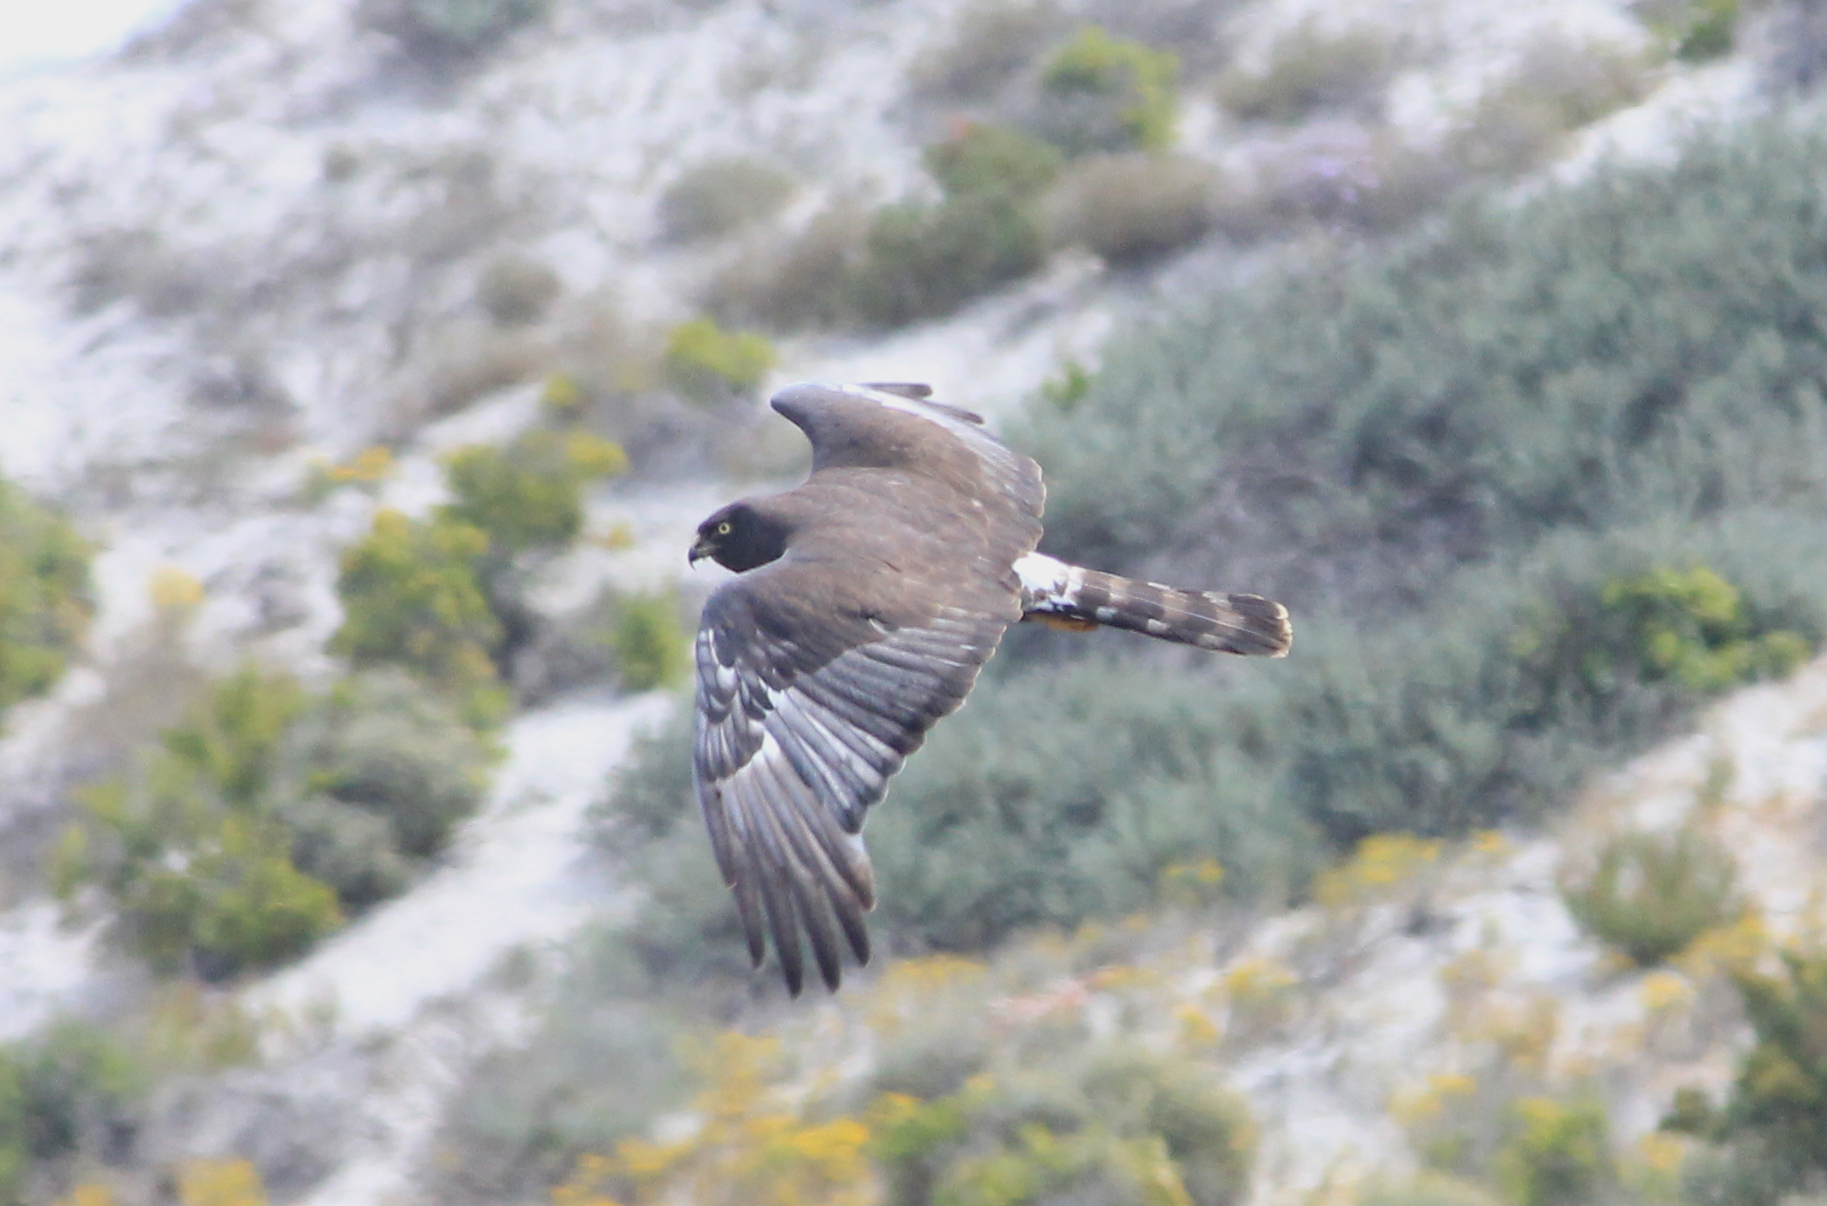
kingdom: Animalia
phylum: Chordata
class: Aves
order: Accipitriformes
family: Accipitridae
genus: Circus
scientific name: Circus maurus
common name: Black harrier
